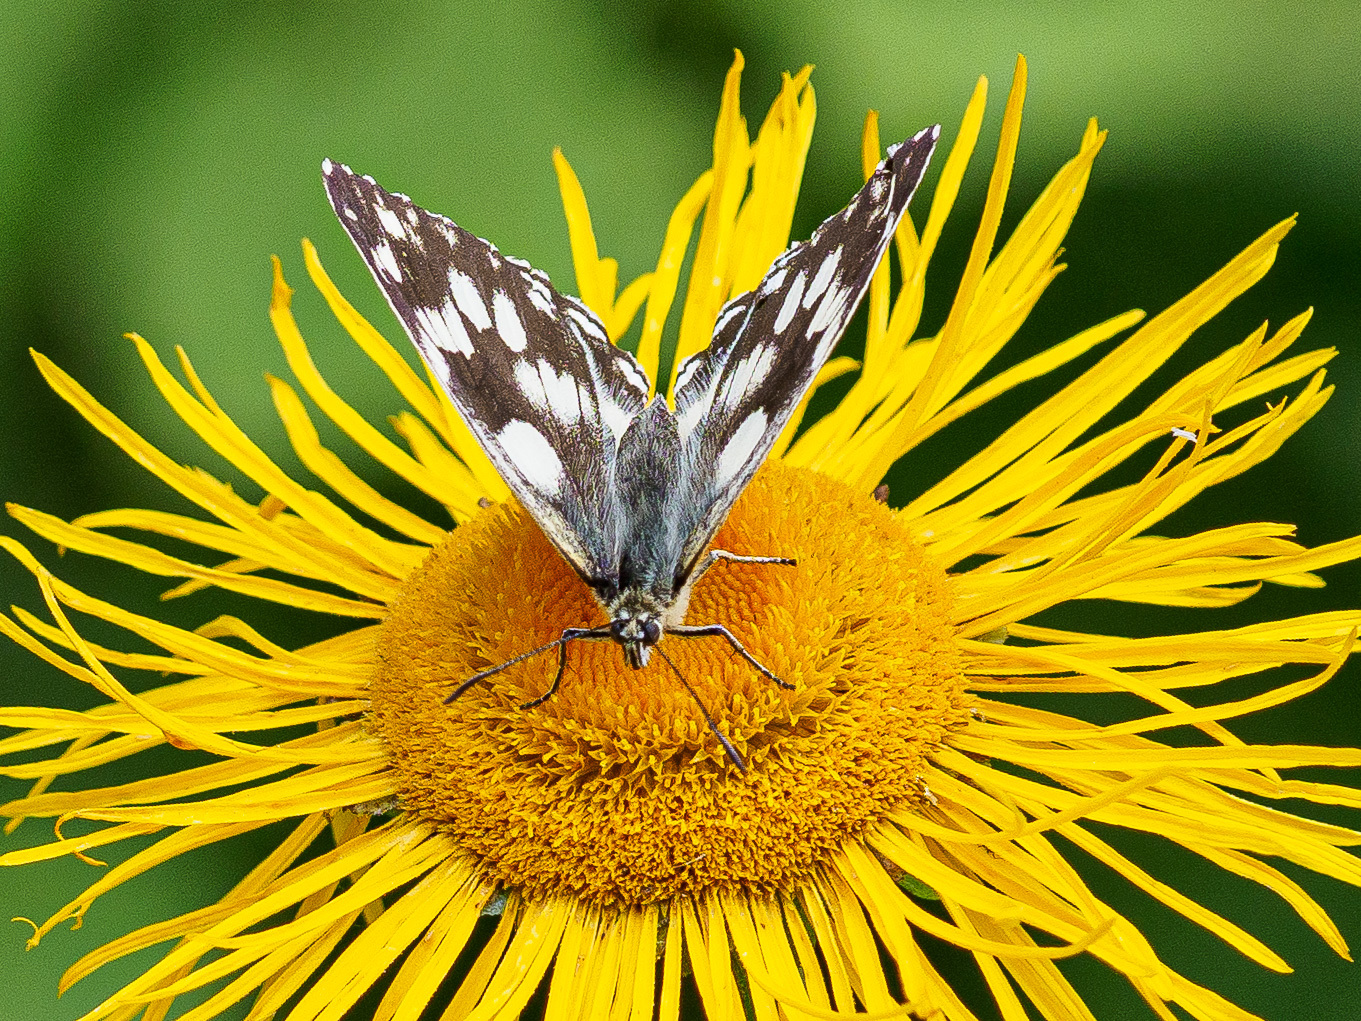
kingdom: Animalia
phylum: Arthropoda
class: Insecta
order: Lepidoptera
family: Nymphalidae
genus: Melanargia
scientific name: Melanargia galathea
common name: Marbled white
